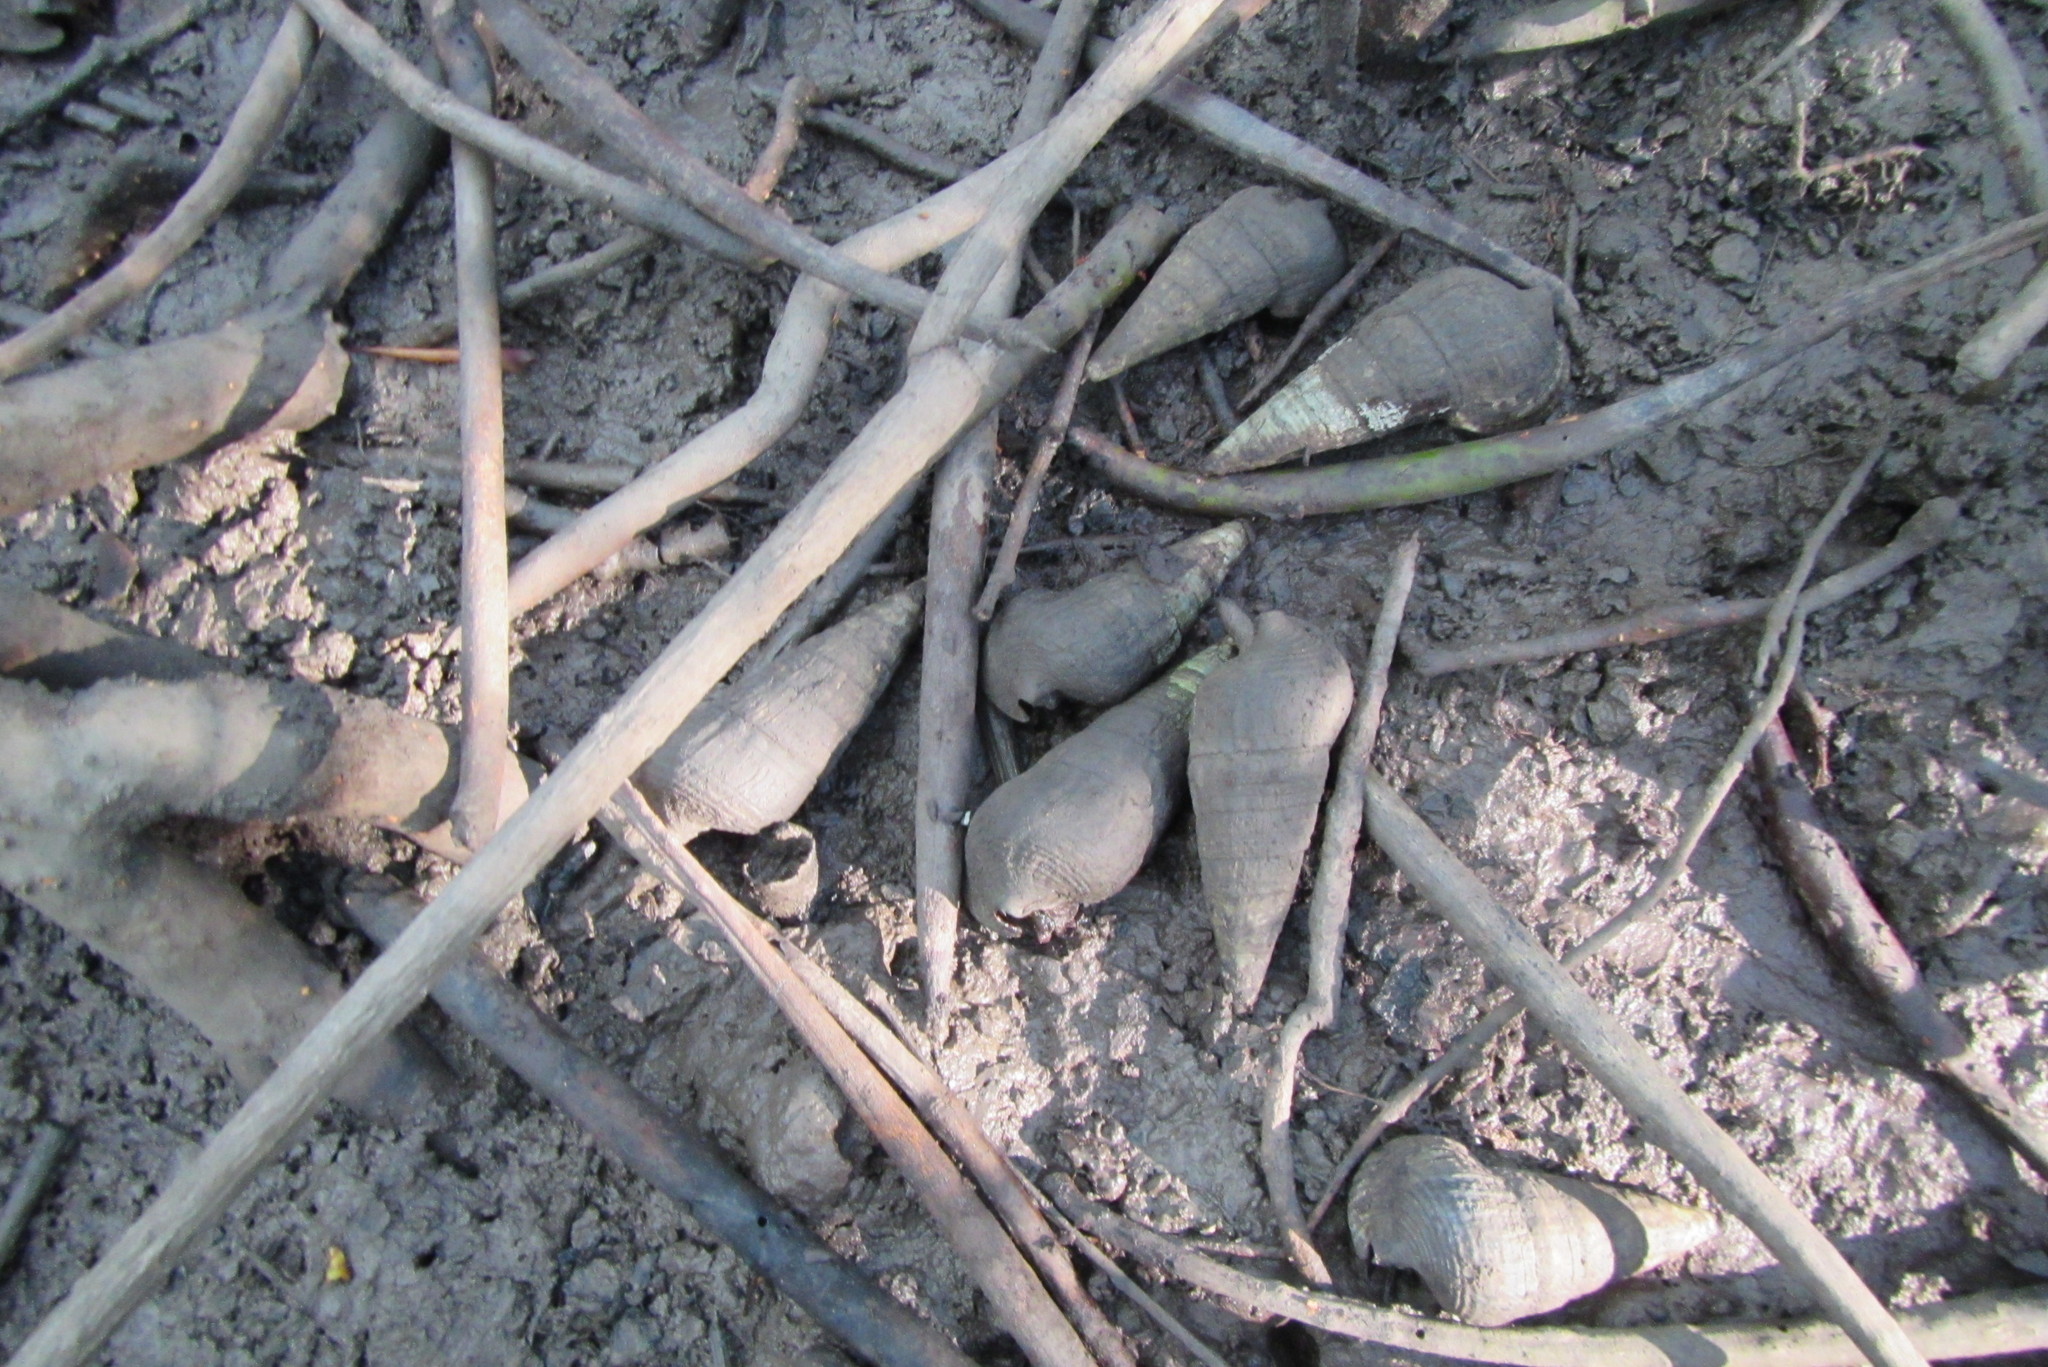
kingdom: Animalia
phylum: Mollusca
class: Gastropoda
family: Potamididae
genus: Terebralia
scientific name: Terebralia palustris
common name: Mangrove whelk
